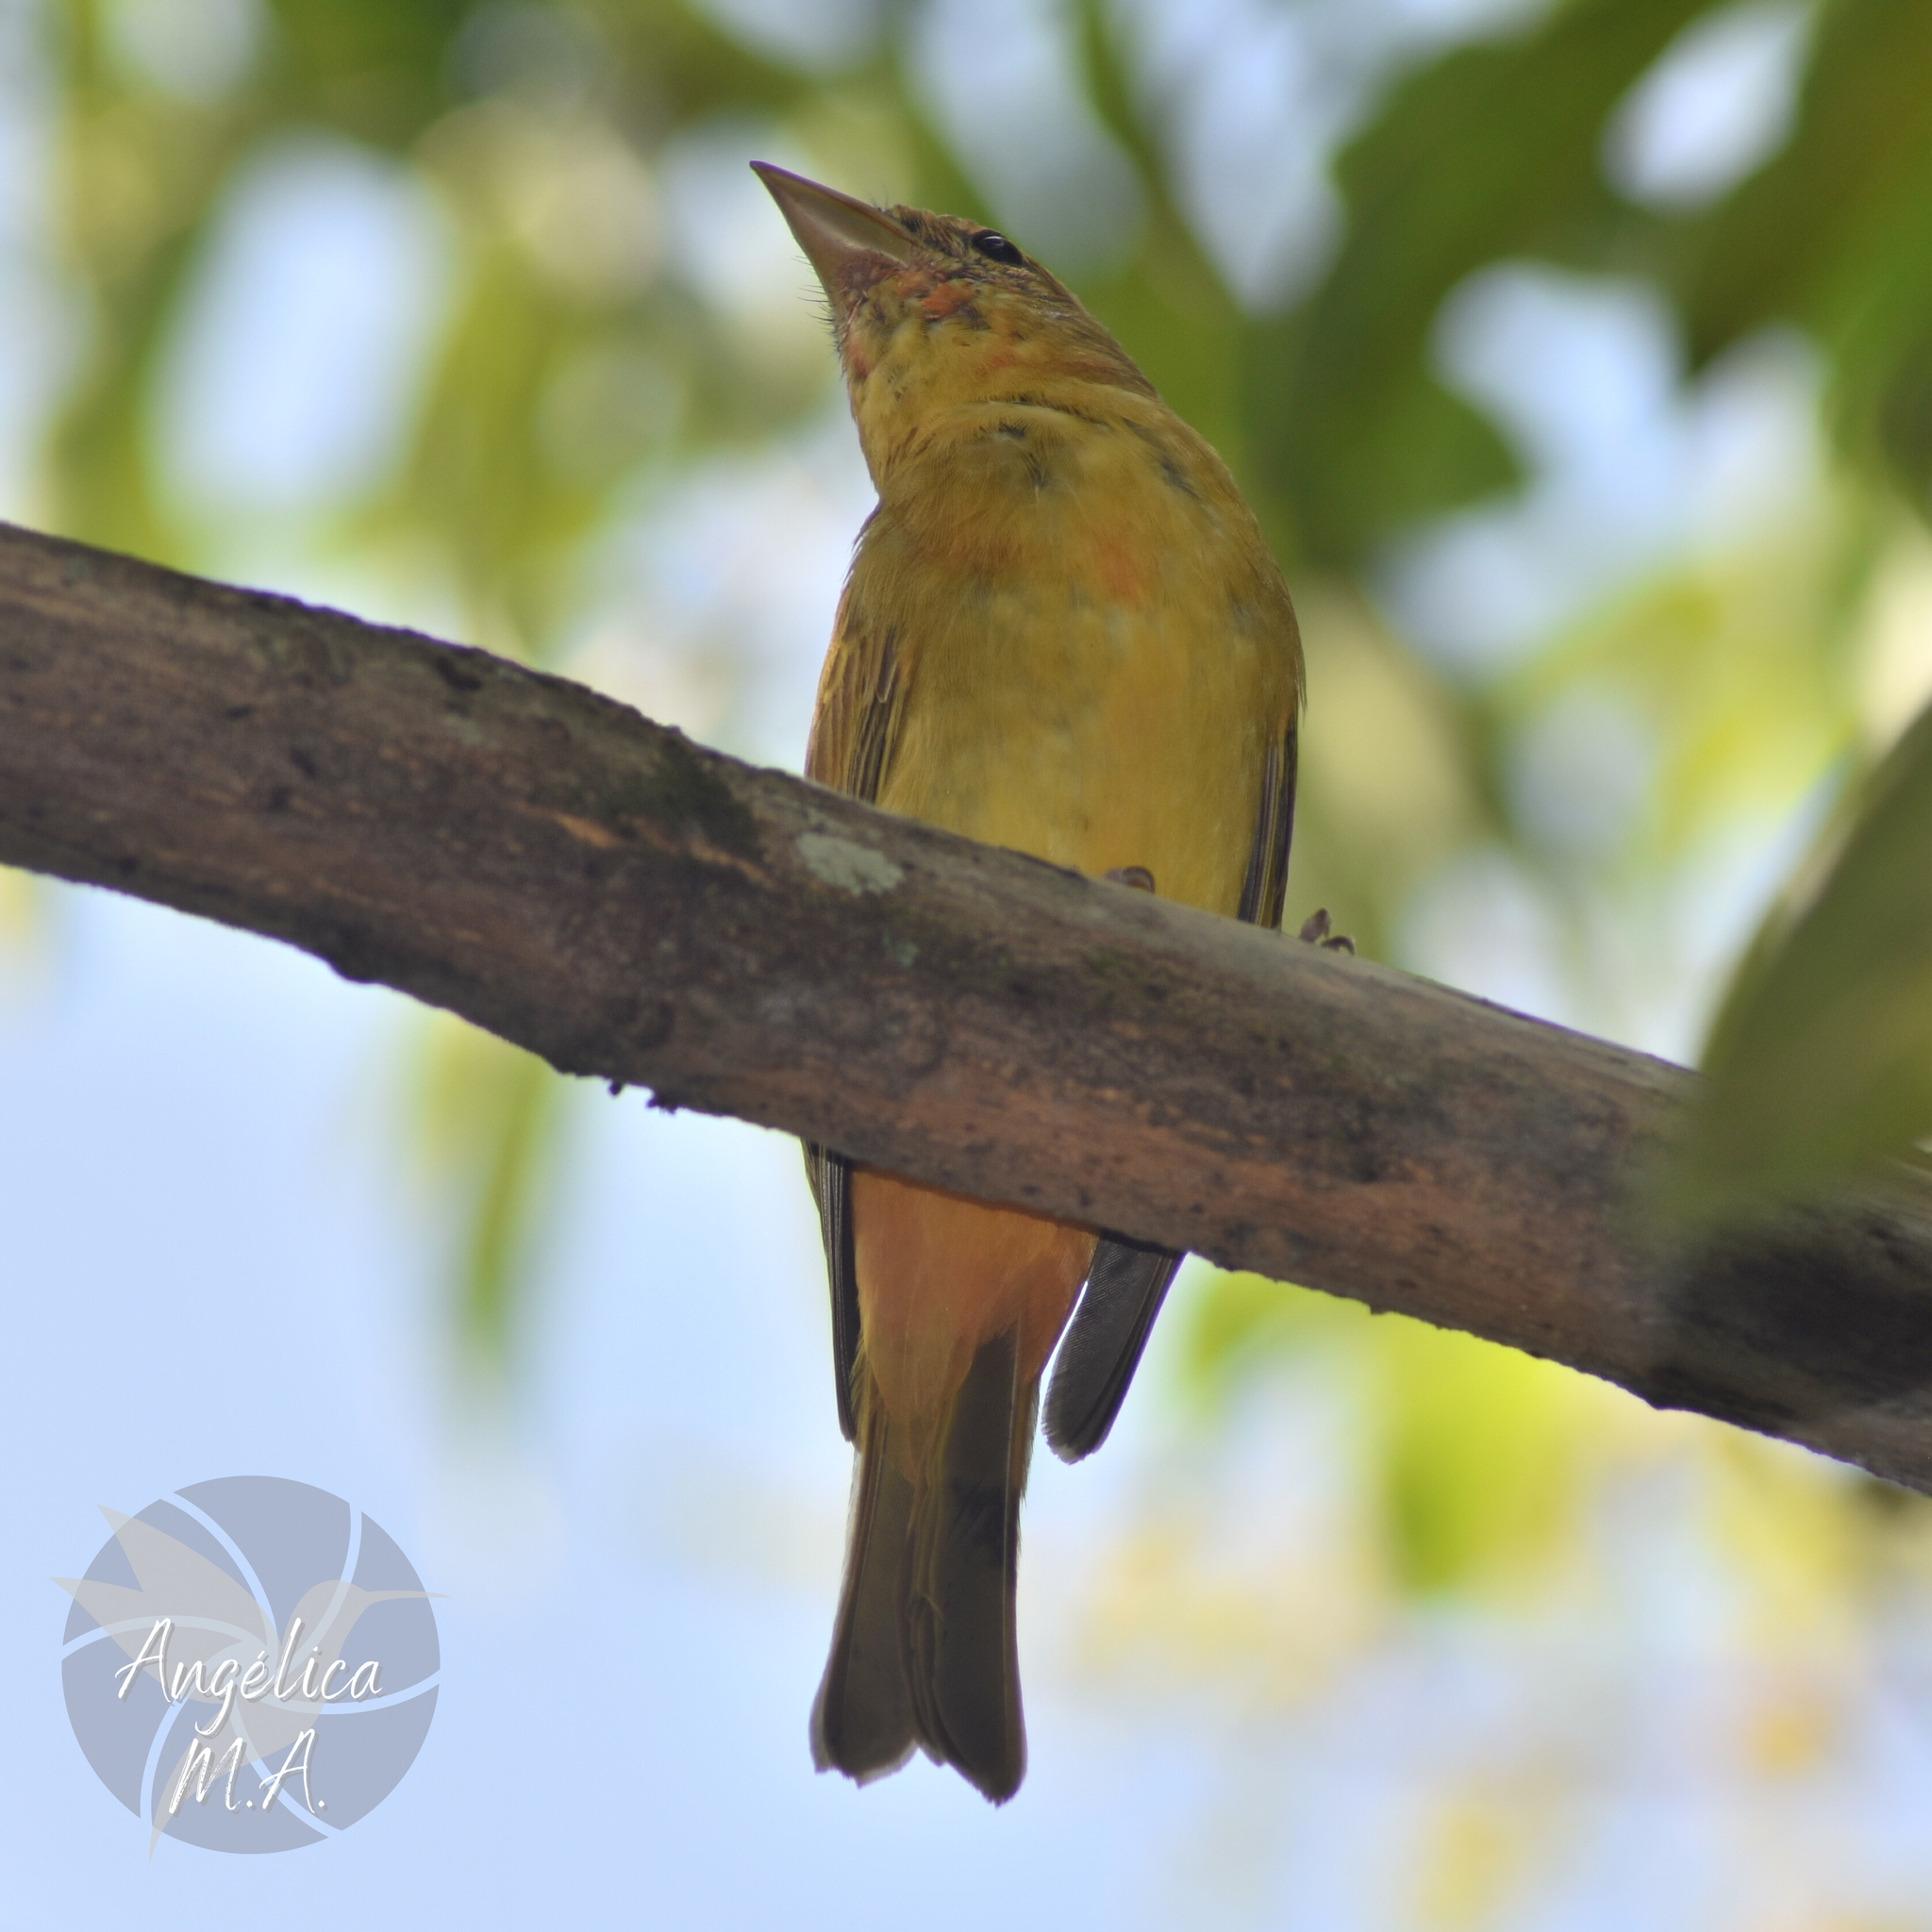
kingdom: Animalia
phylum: Chordata
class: Aves
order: Passeriformes
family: Cardinalidae
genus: Piranga
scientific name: Piranga rubra
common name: Summer tanager
